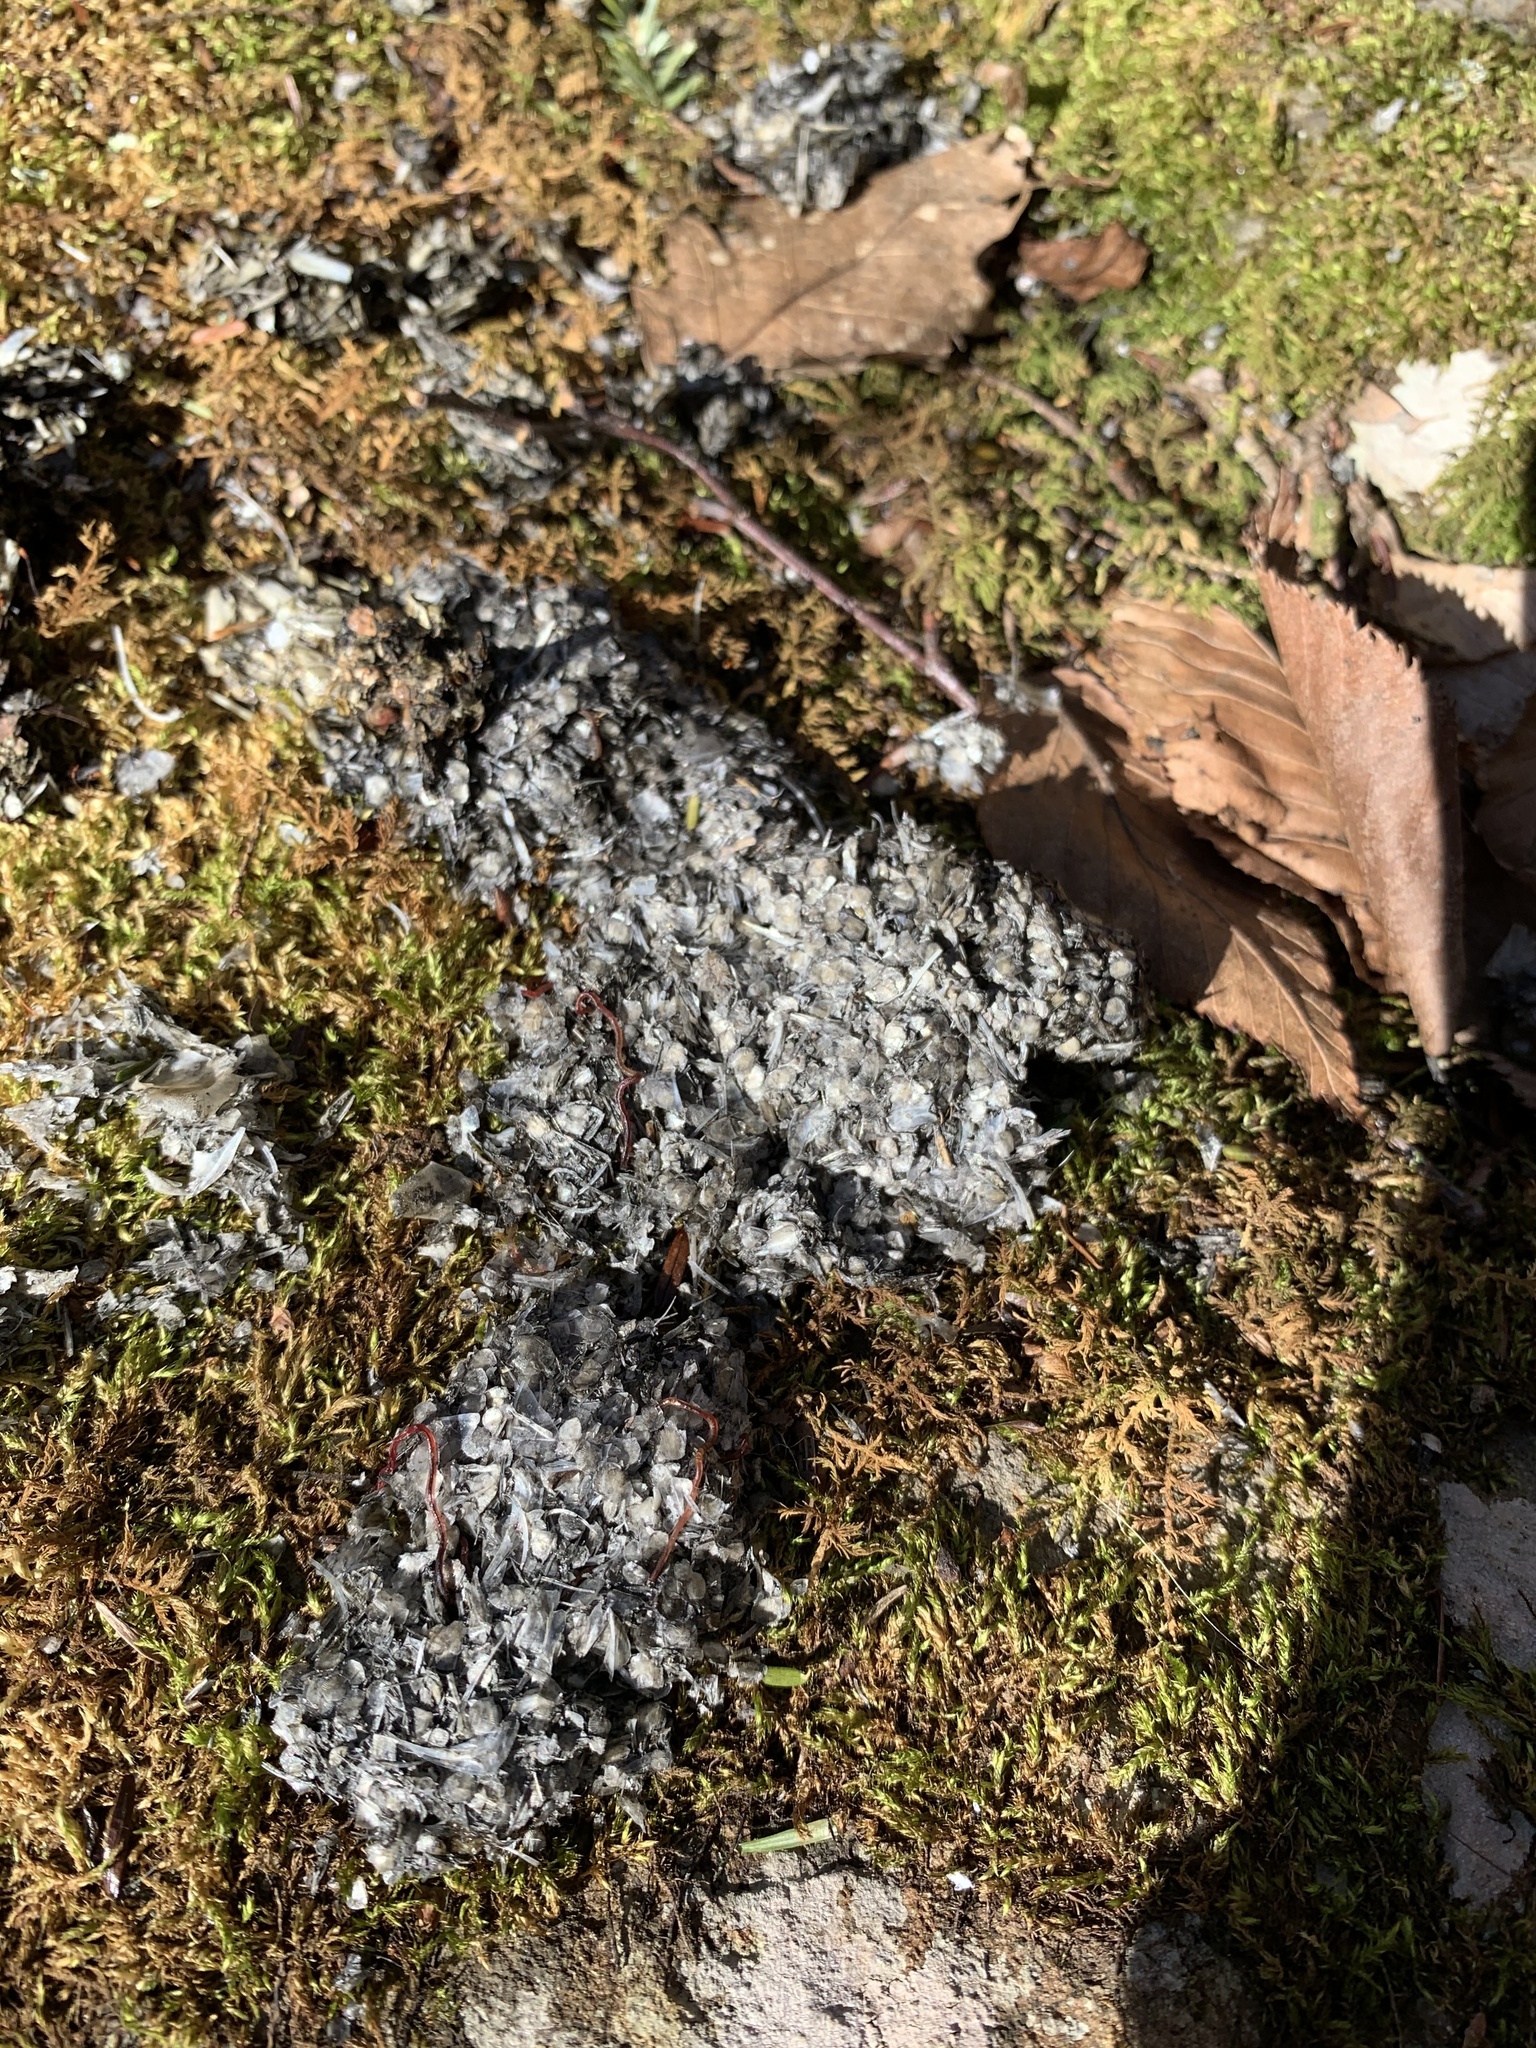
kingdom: Animalia
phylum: Chordata
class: Mammalia
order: Carnivora
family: Mustelidae
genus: Lontra
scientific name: Lontra canadensis
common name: North american river otter
